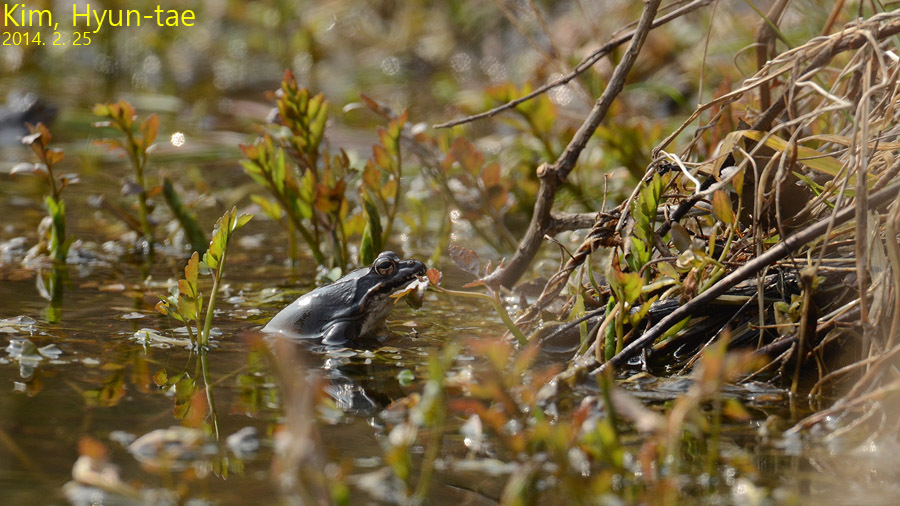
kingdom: Animalia
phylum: Chordata
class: Amphibia
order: Anura
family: Ranidae
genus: Rana
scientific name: Rana uenoi
